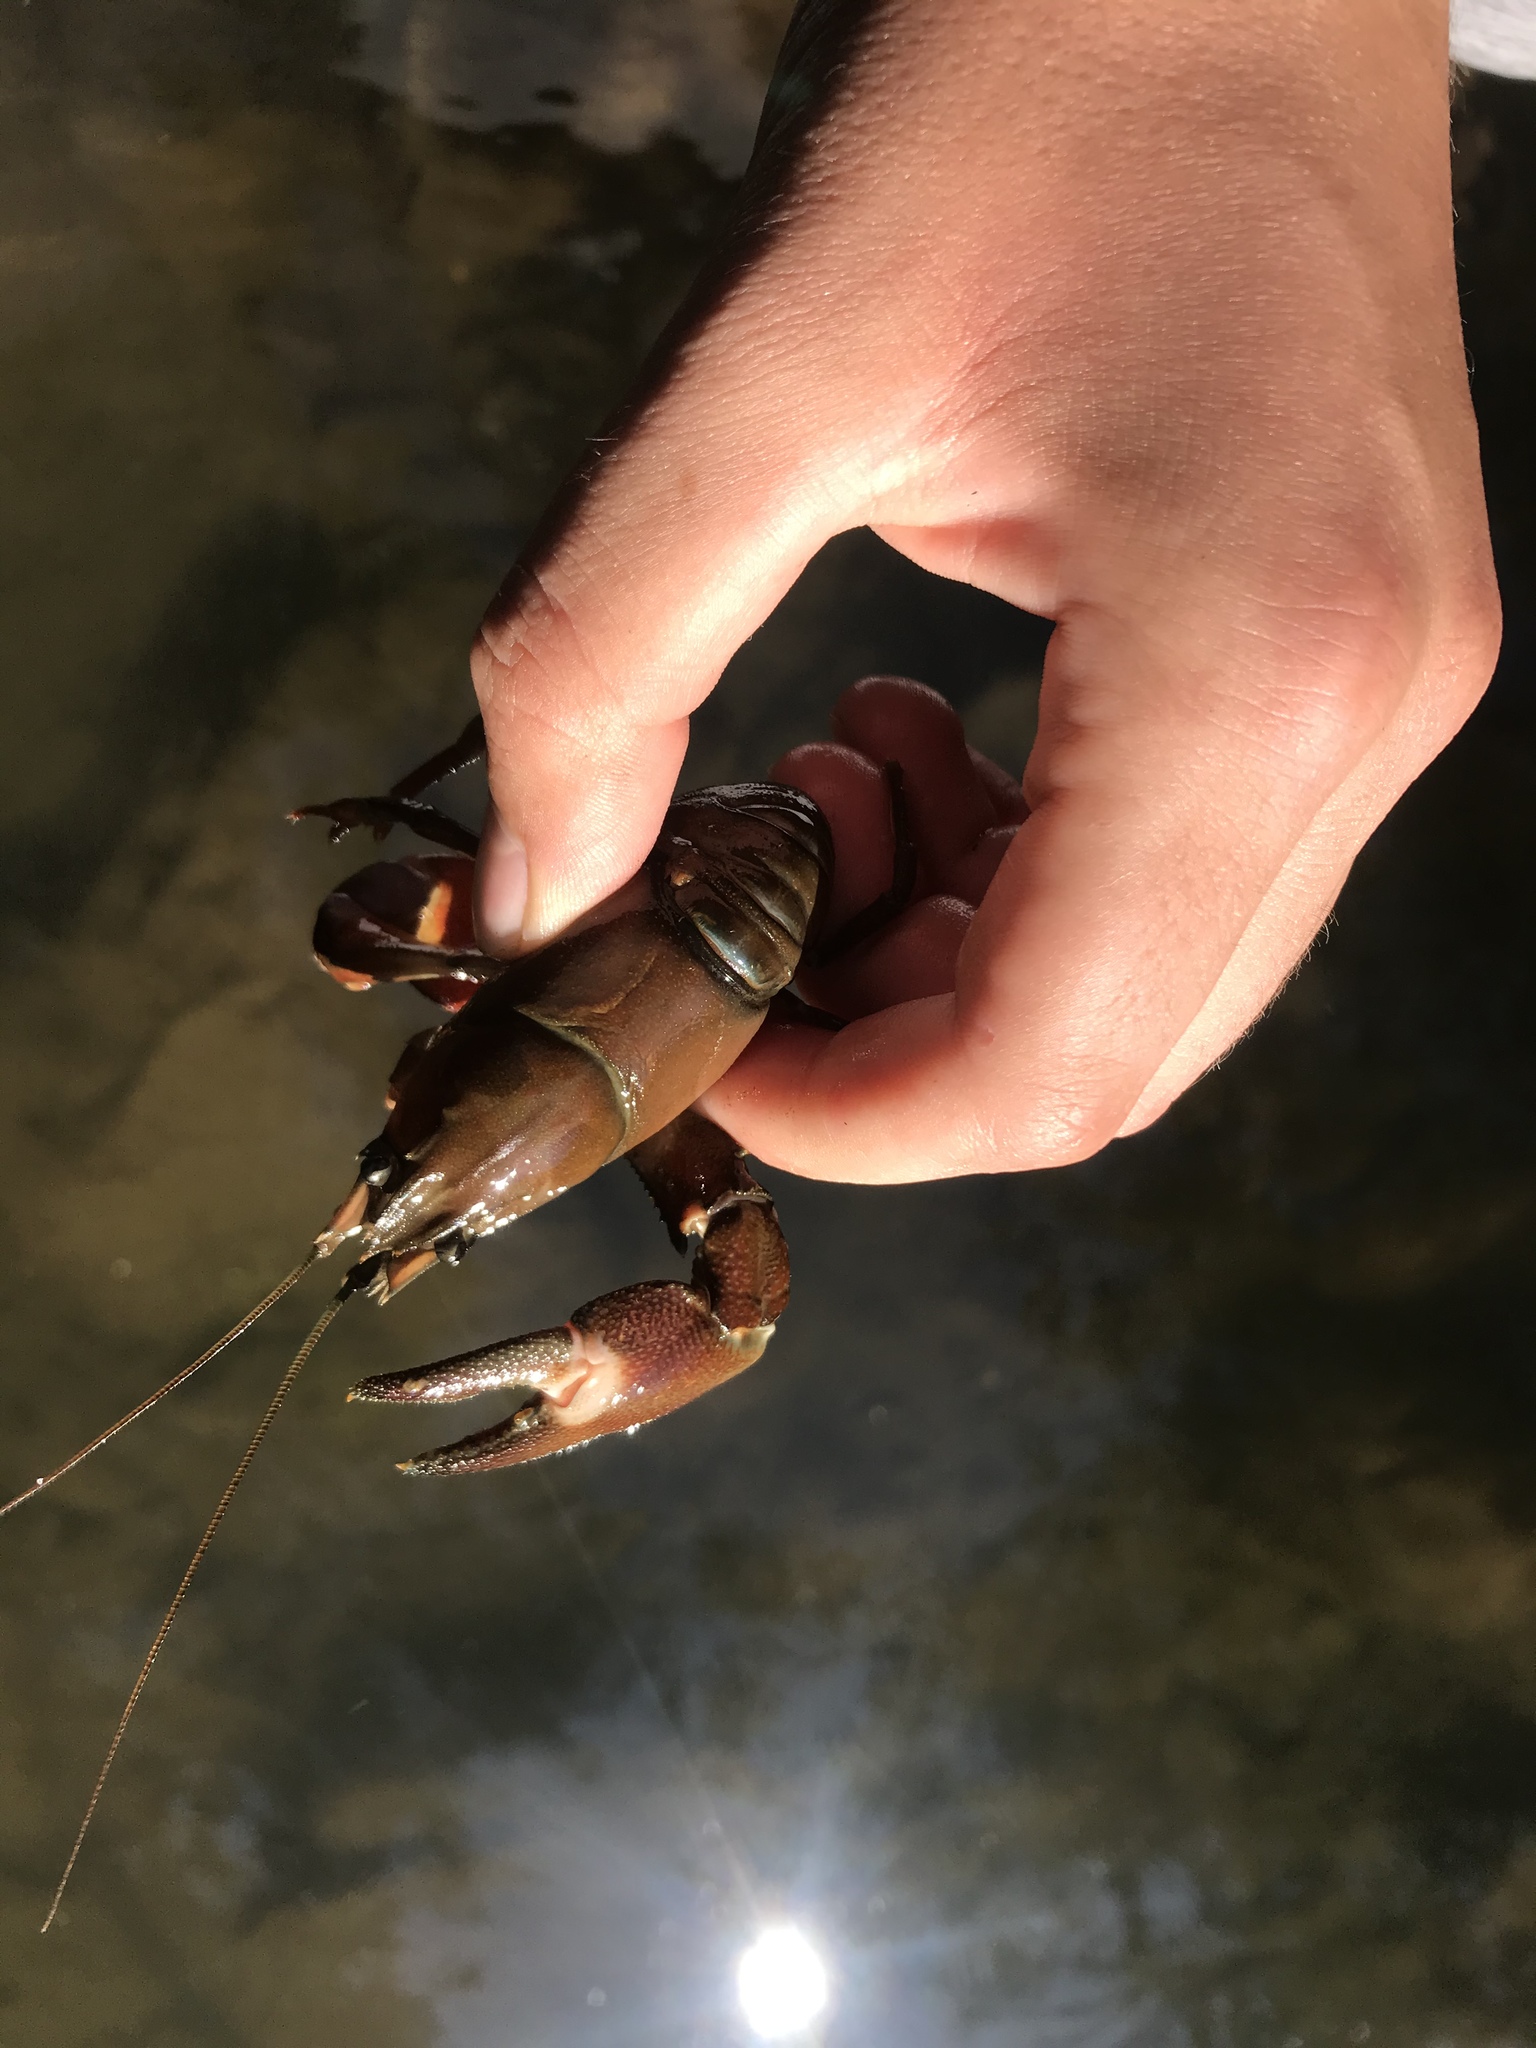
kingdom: Animalia
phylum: Arthropoda
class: Malacostraca
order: Decapoda
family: Astacidae
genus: Pacifastacus
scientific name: Pacifastacus leniusculus
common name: Signal crayfish
